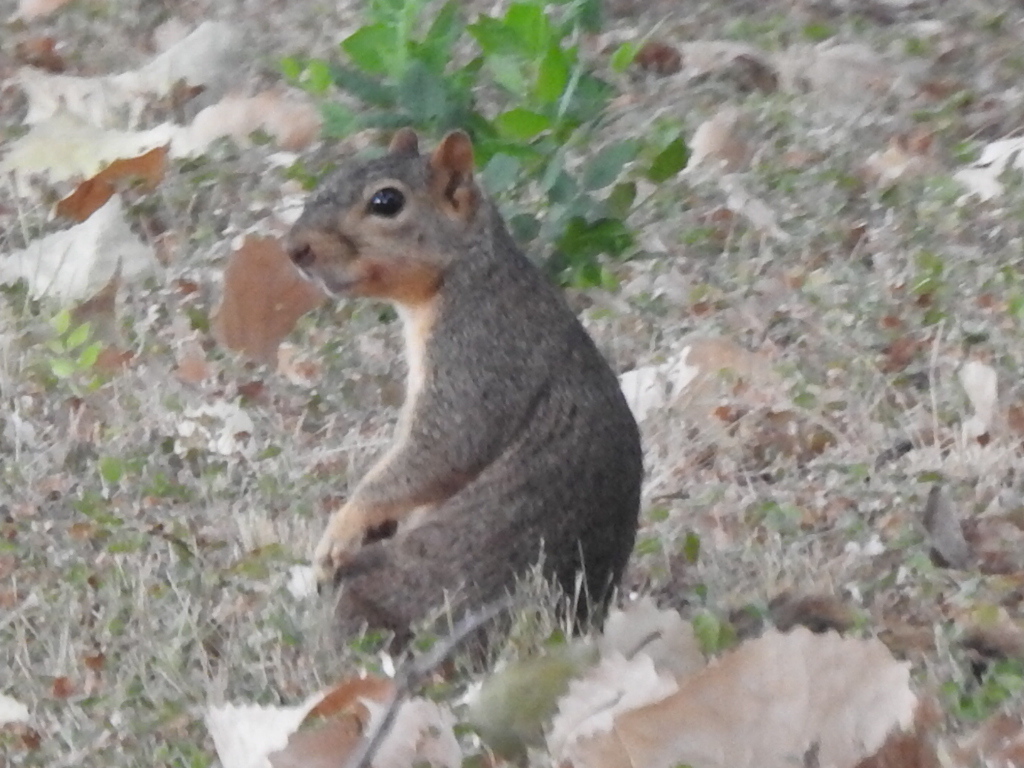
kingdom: Animalia
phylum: Chordata
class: Mammalia
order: Rodentia
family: Sciuridae
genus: Sciurus
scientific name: Sciurus niger
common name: Fox squirrel
